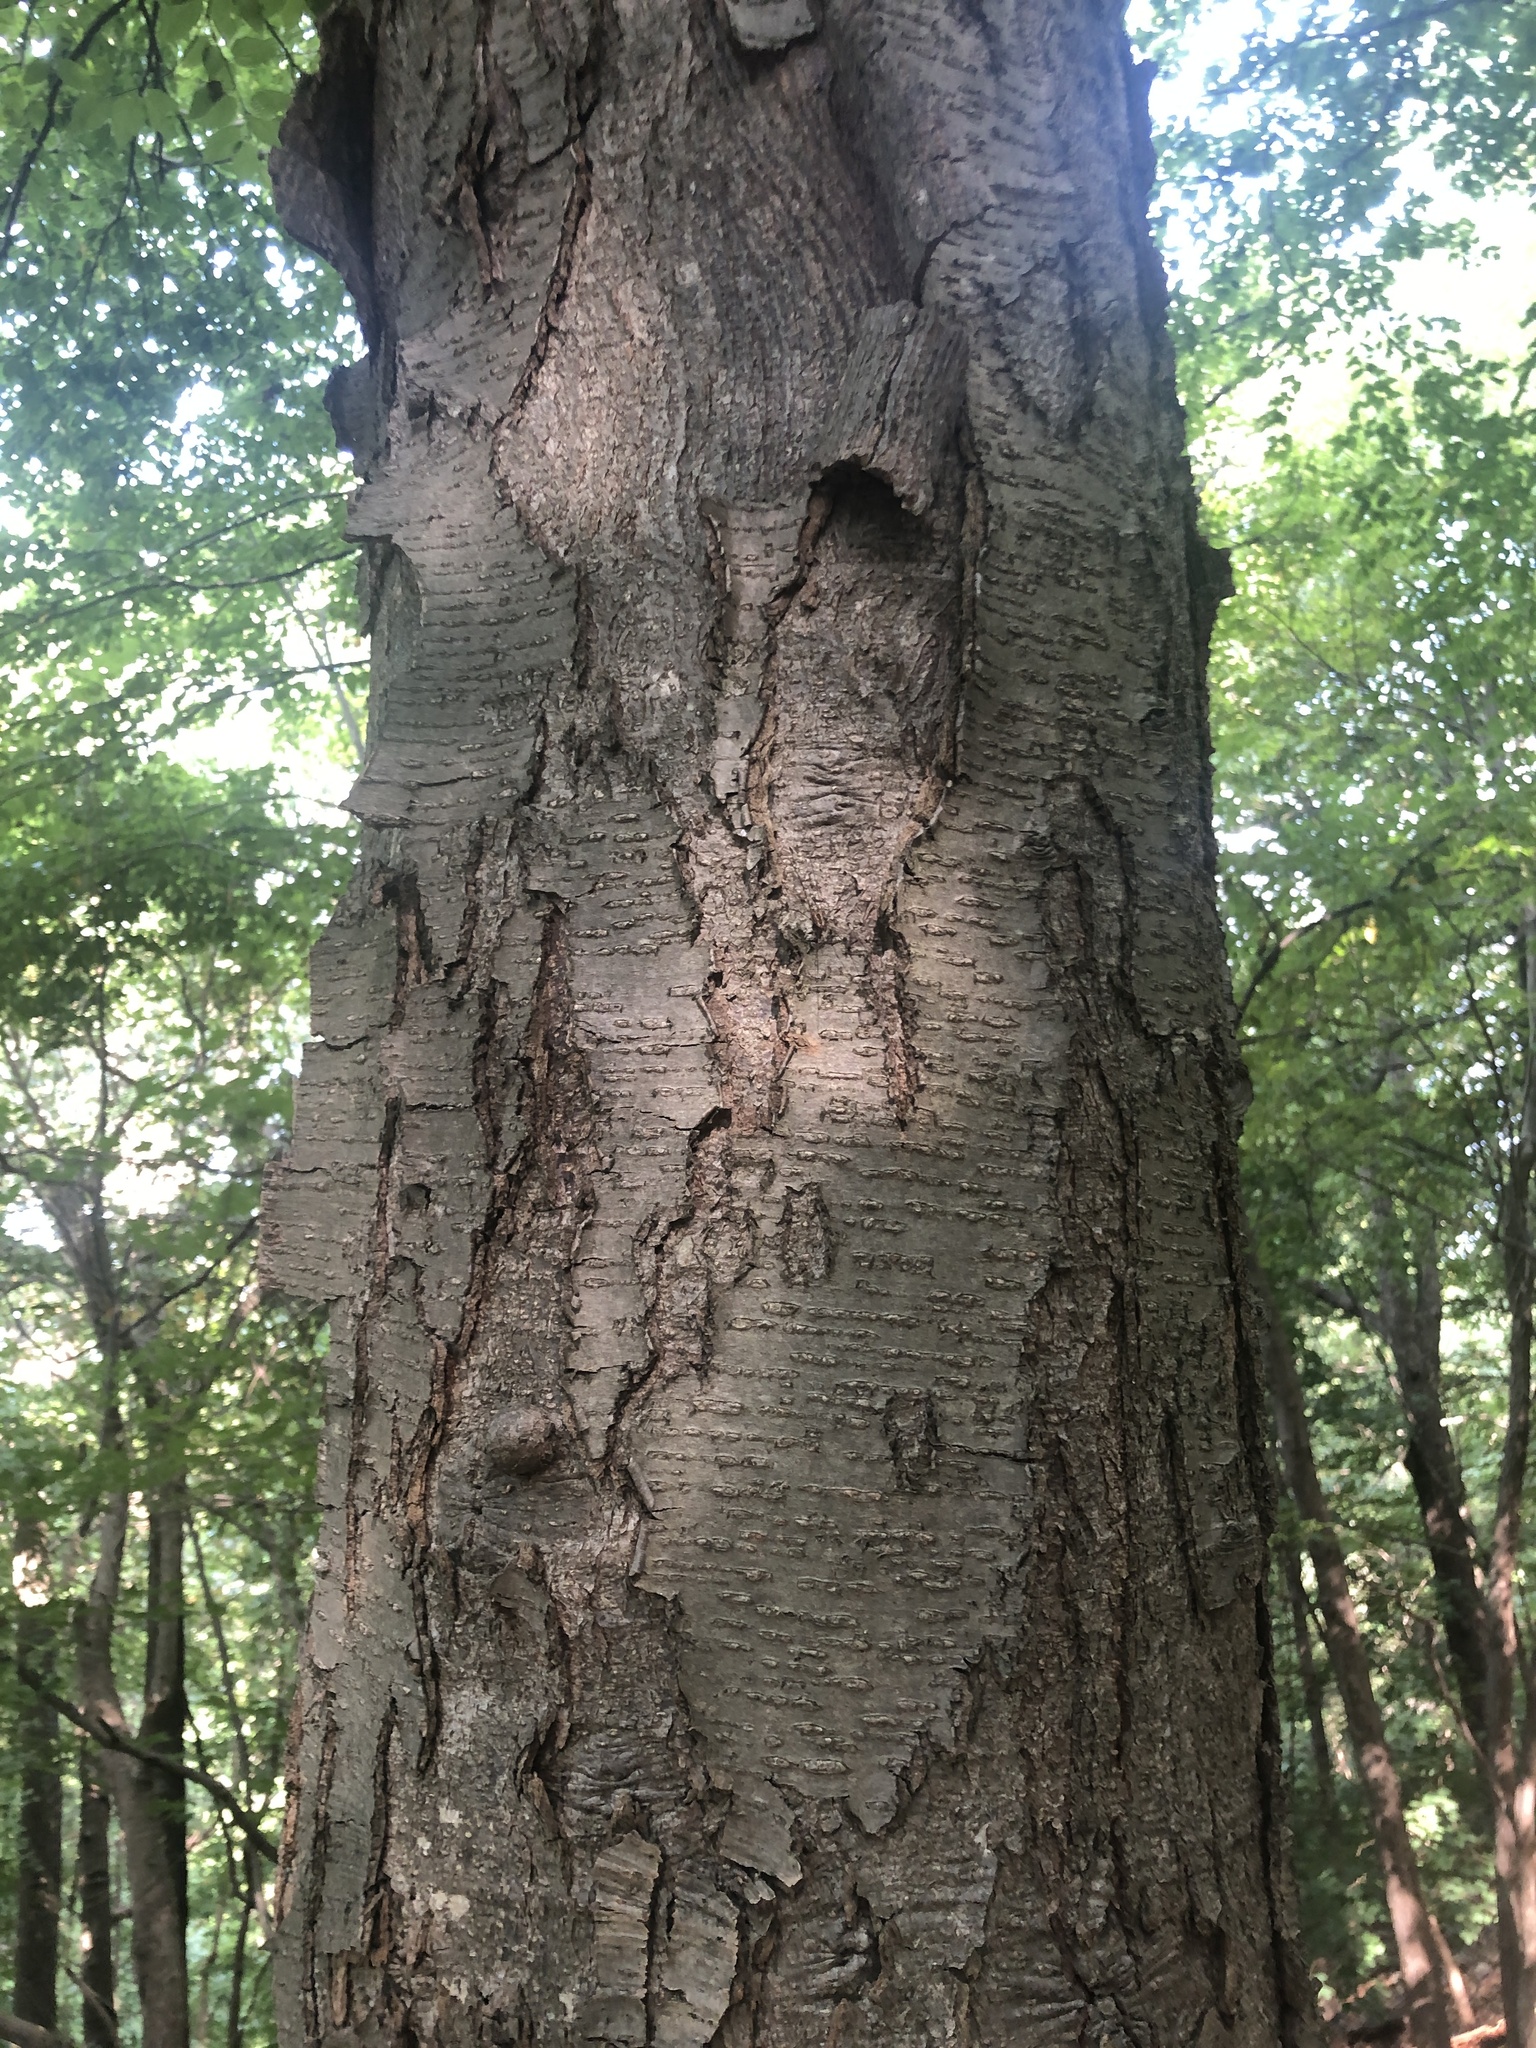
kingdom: Plantae
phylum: Tracheophyta
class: Magnoliopsida
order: Fagales
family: Betulaceae
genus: Betula
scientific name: Betula lenta
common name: Black birch
